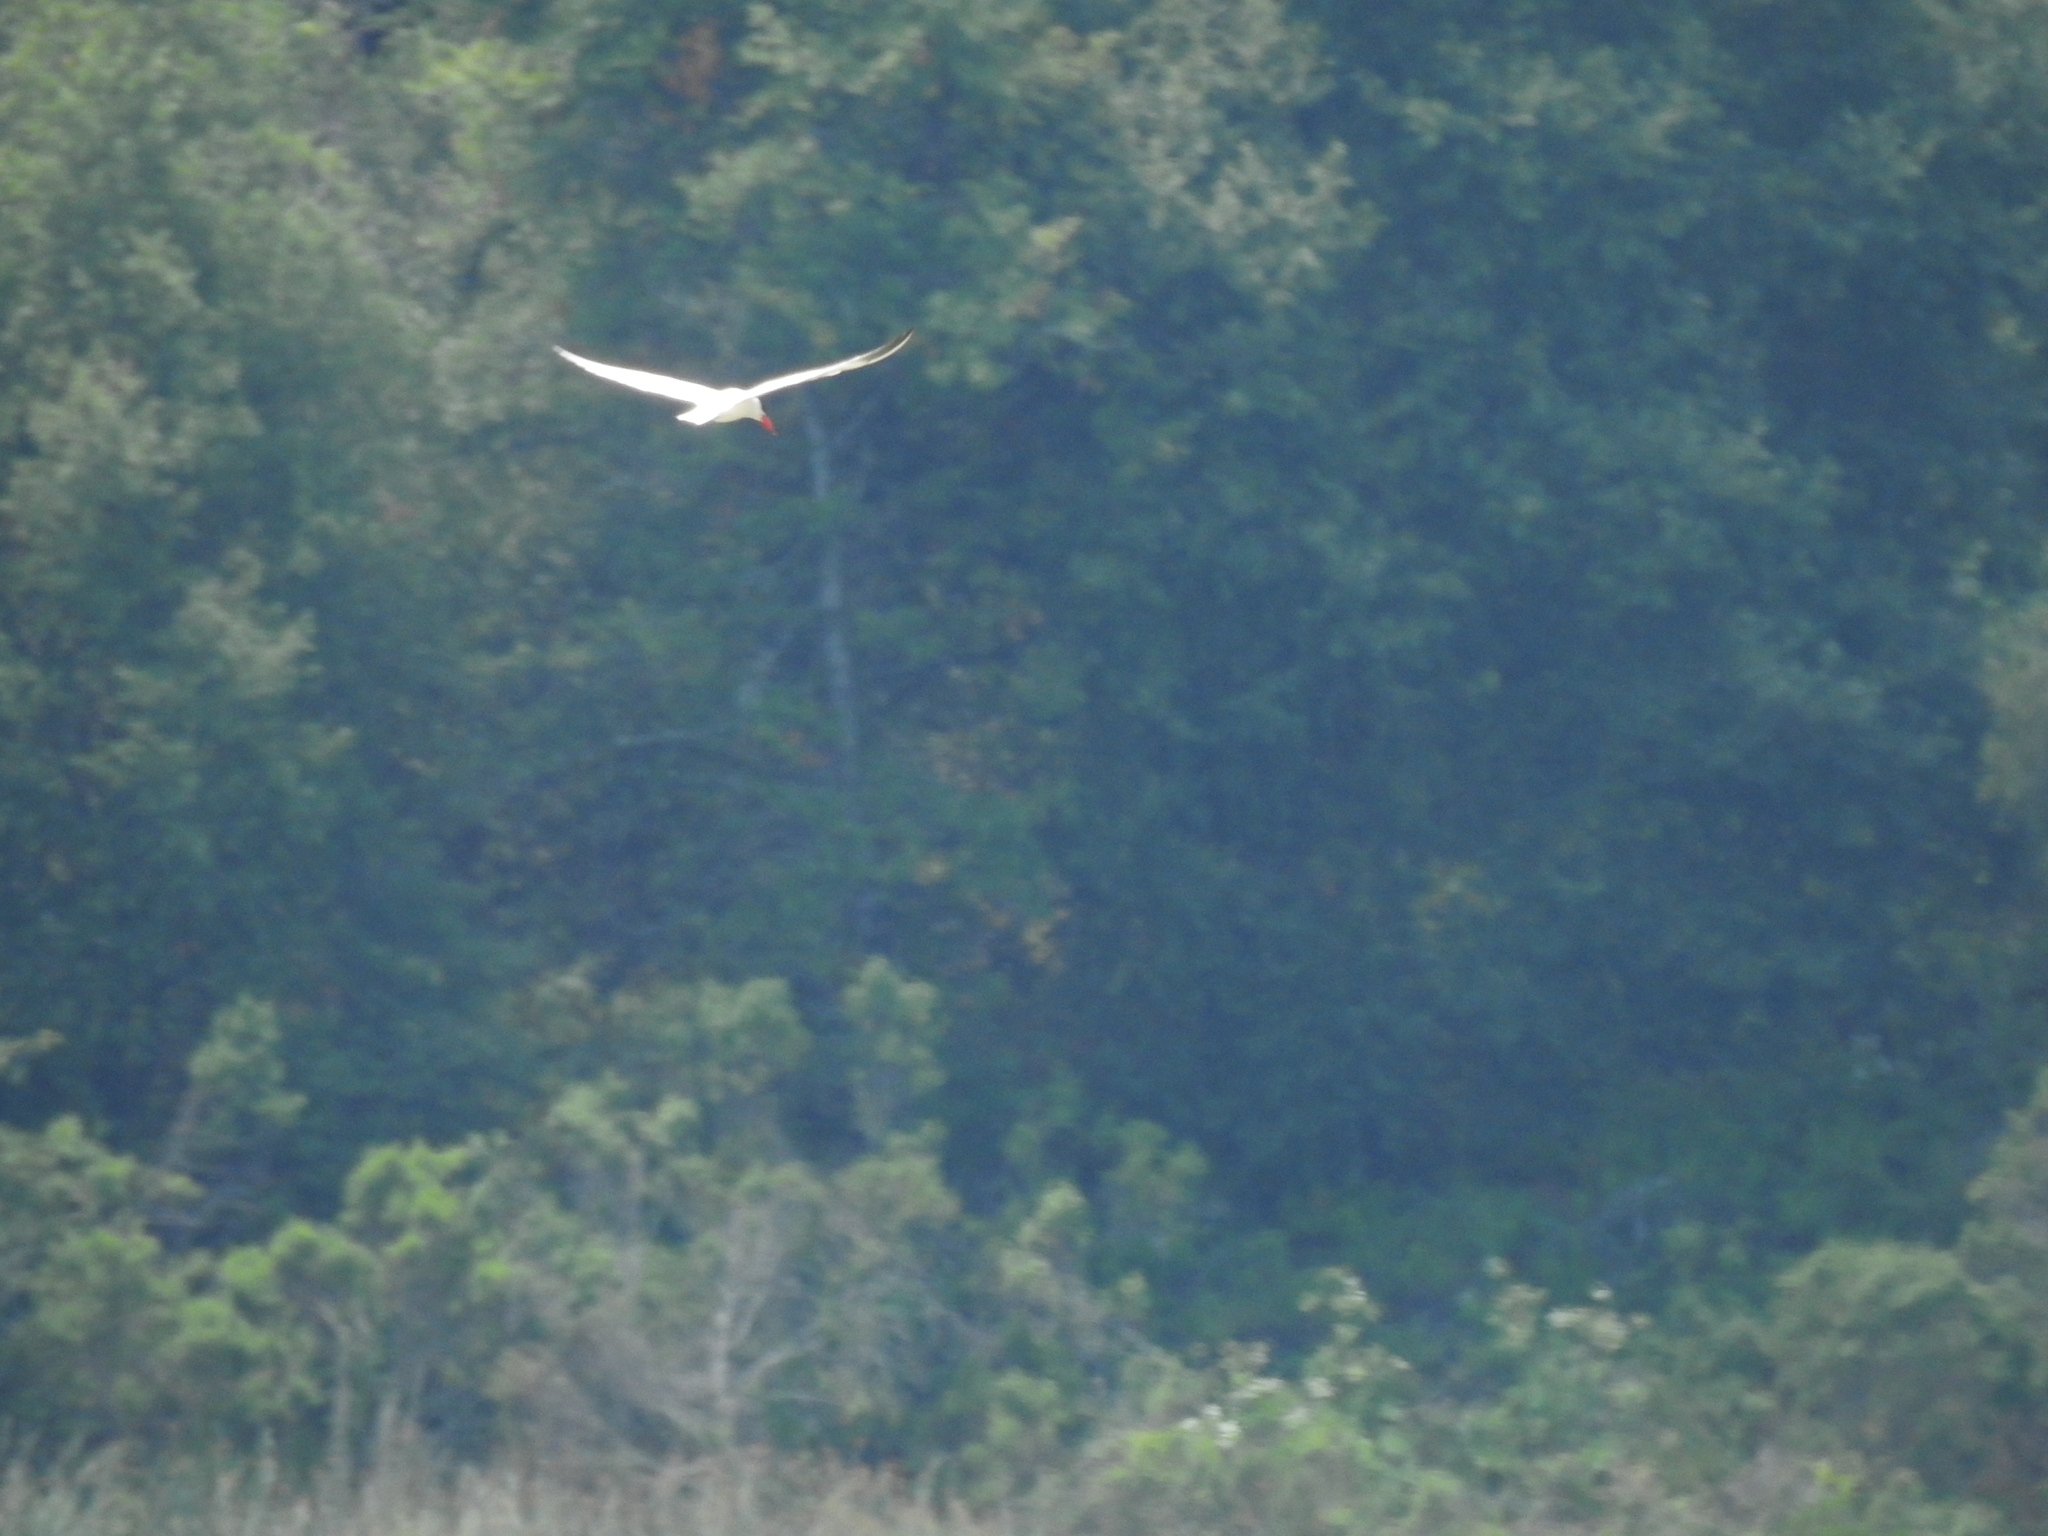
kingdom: Animalia
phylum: Chordata
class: Aves
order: Charadriiformes
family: Laridae
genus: Hydroprogne
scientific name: Hydroprogne caspia
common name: Caspian tern
